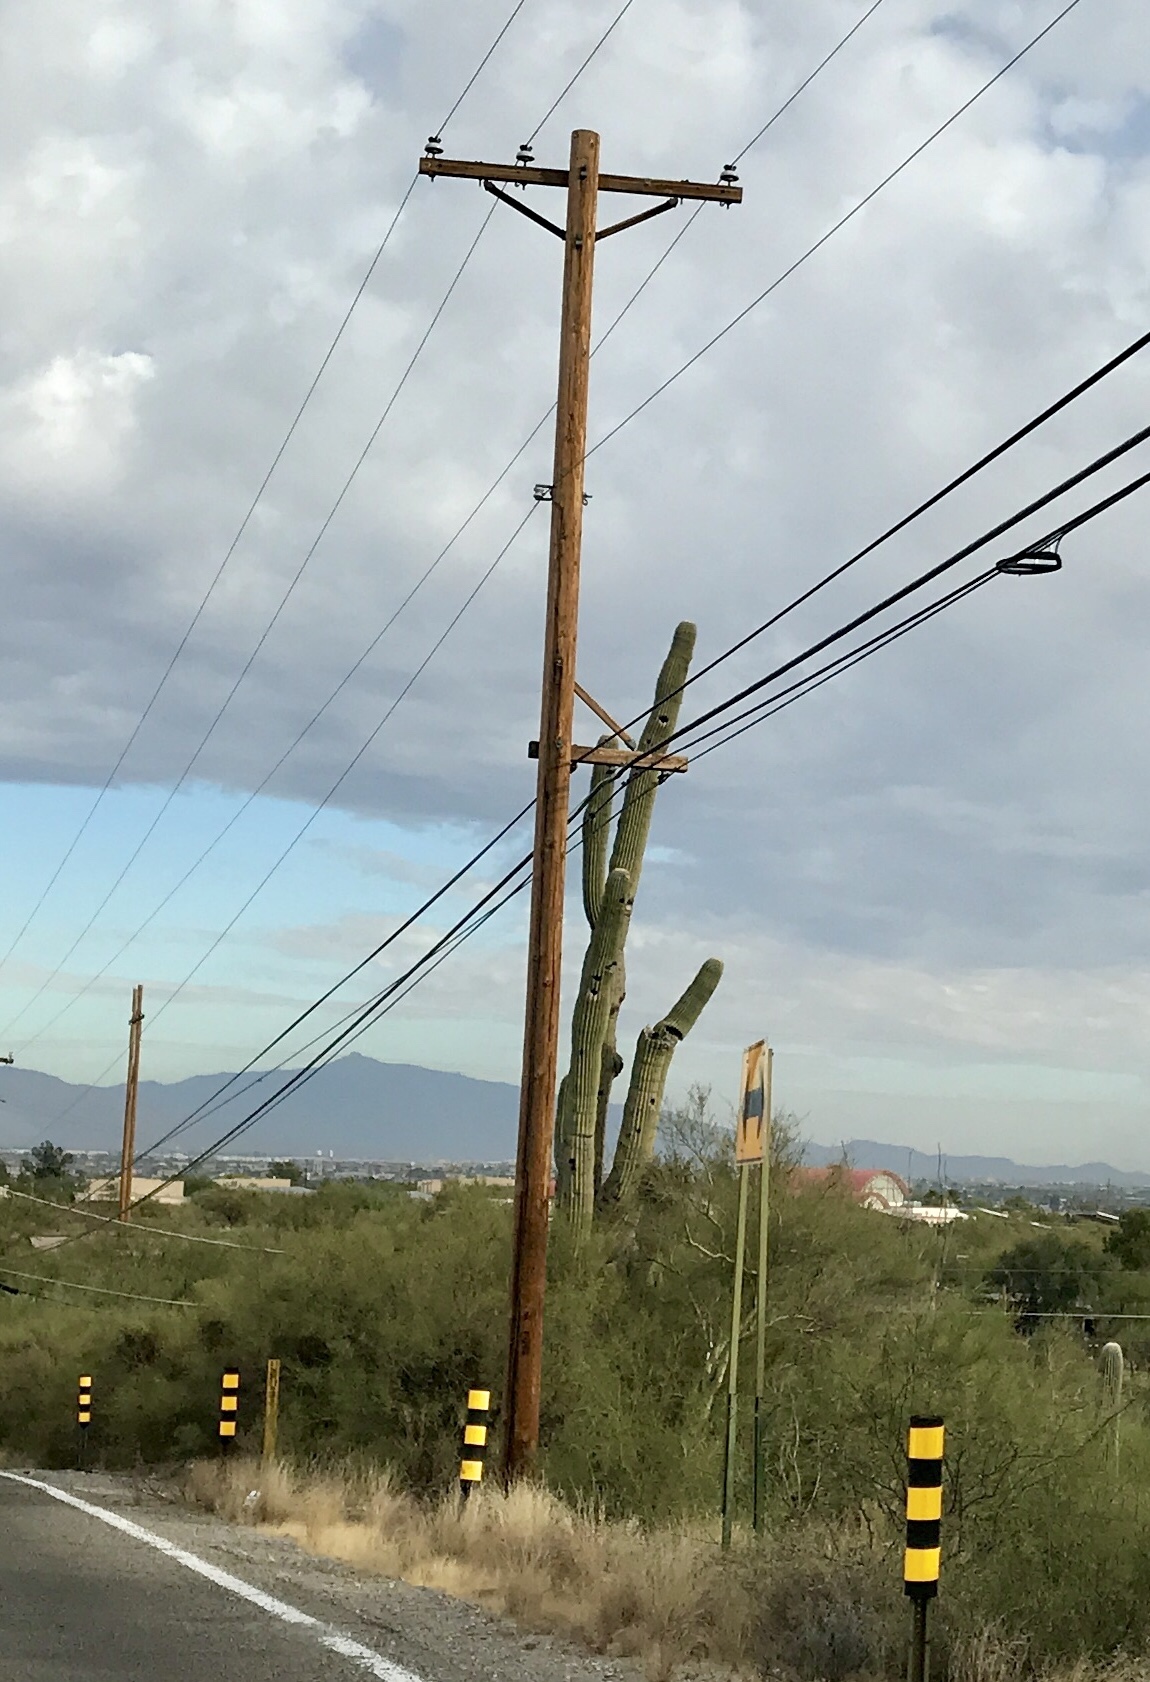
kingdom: Plantae
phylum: Tracheophyta
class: Magnoliopsida
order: Caryophyllales
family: Cactaceae
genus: Carnegiea
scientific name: Carnegiea gigantea
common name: Saguaro
